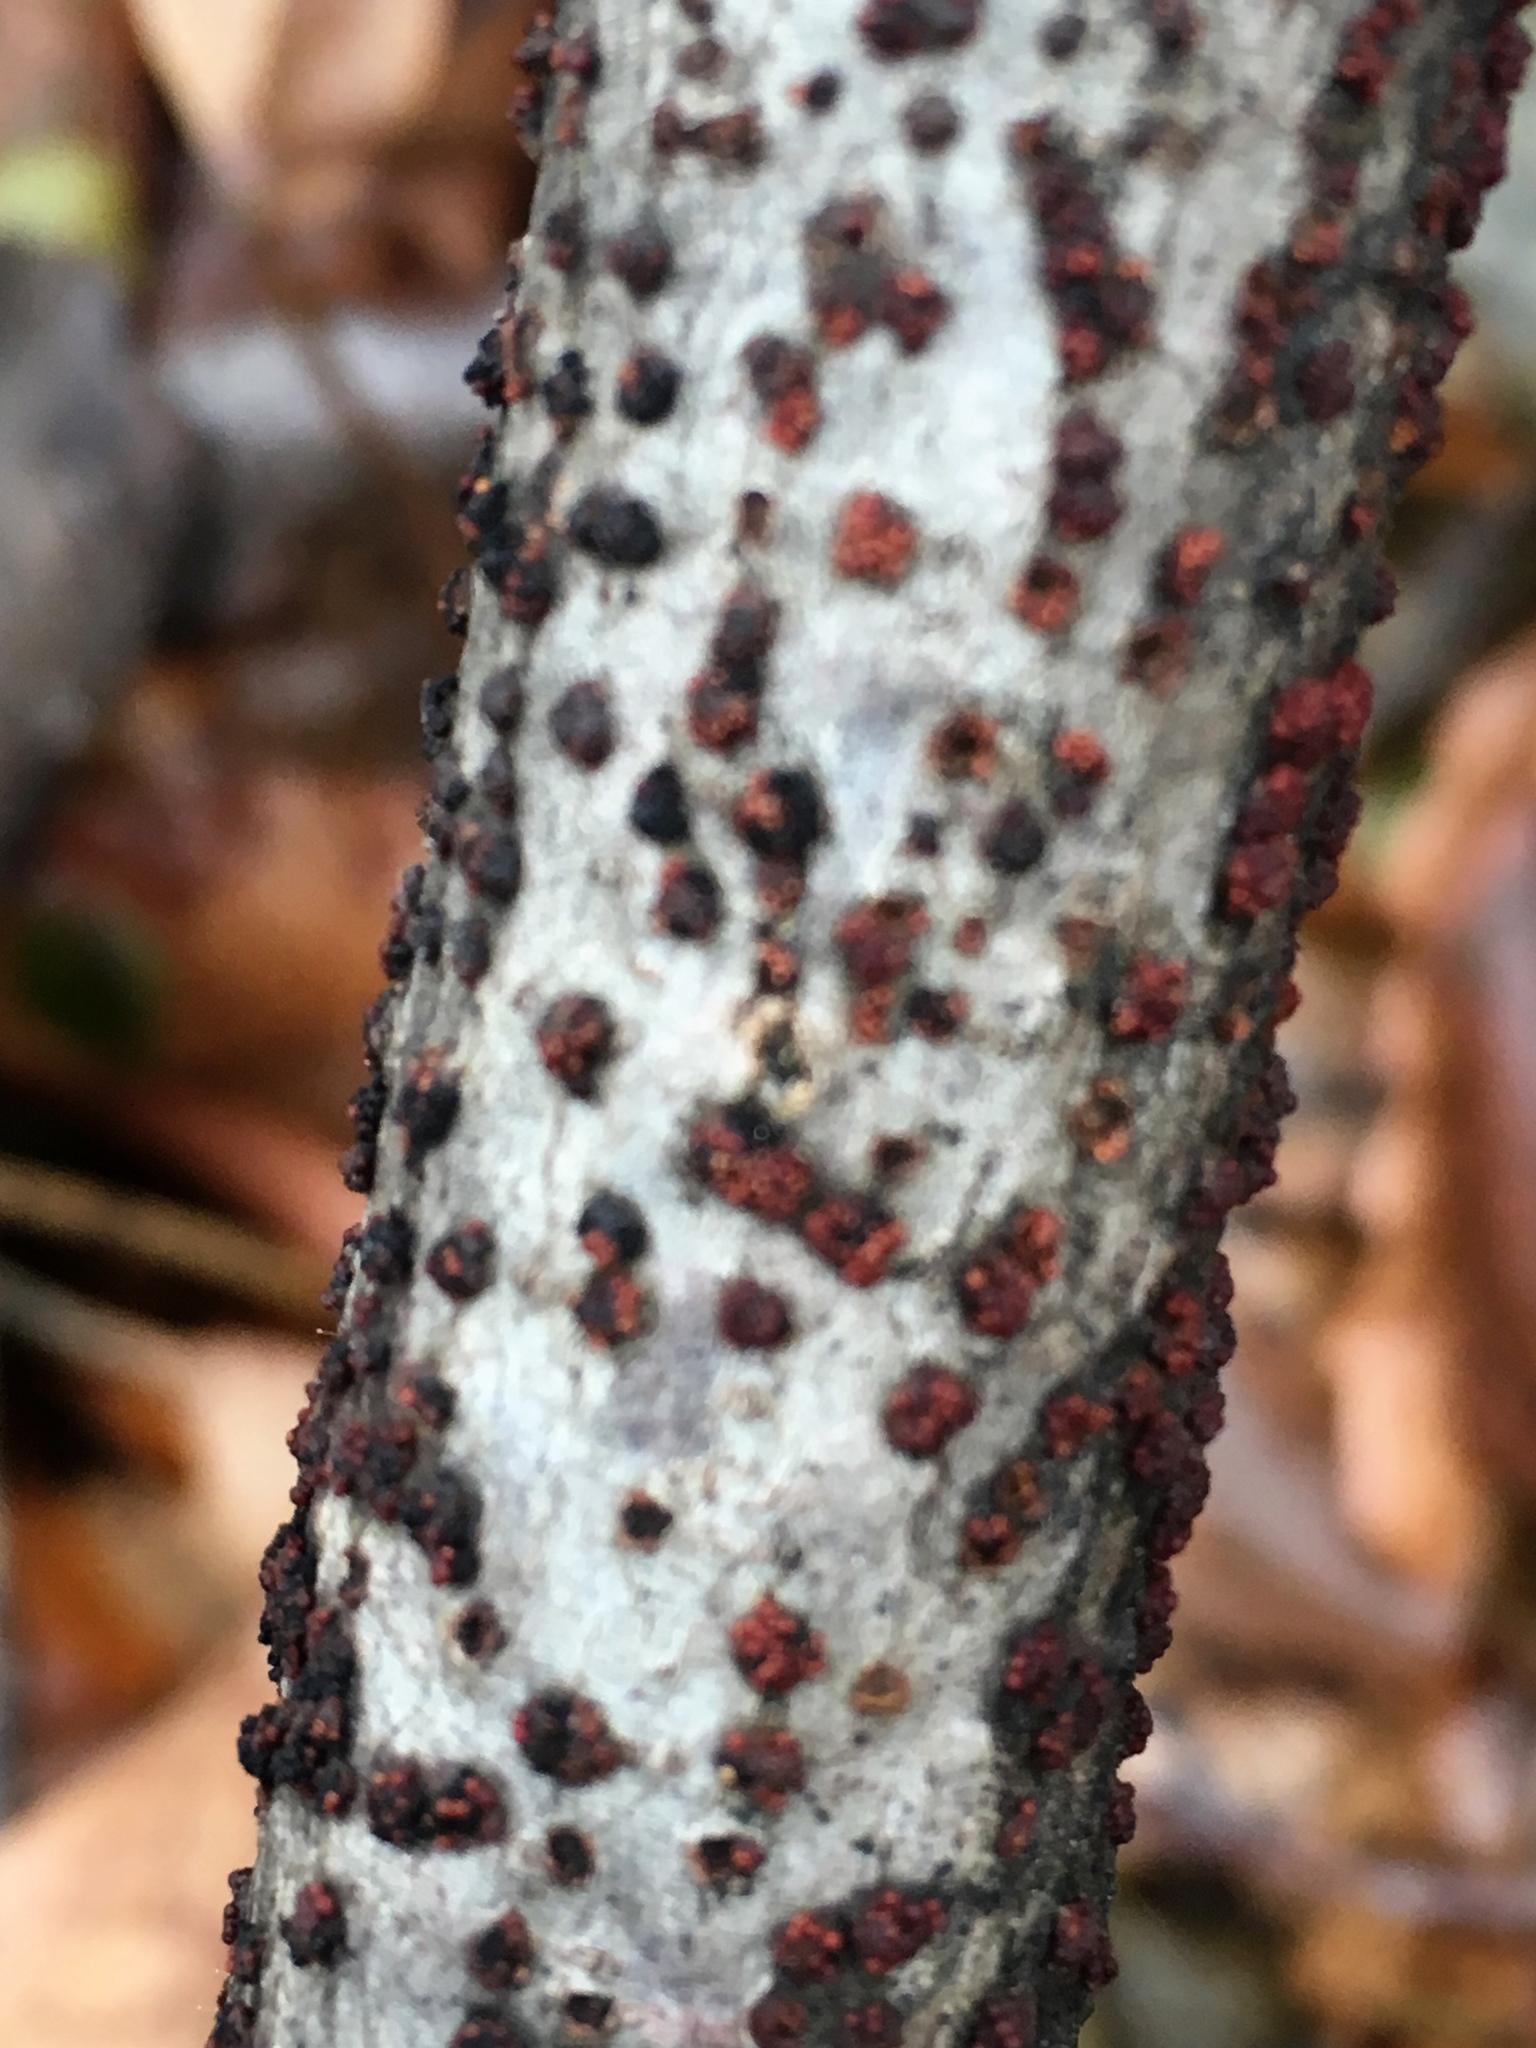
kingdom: Fungi
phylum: Ascomycota
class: Sordariomycetes
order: Hypocreales
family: Nectriaceae
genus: Nectria
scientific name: Nectria cinnabarina
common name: Coral spot
